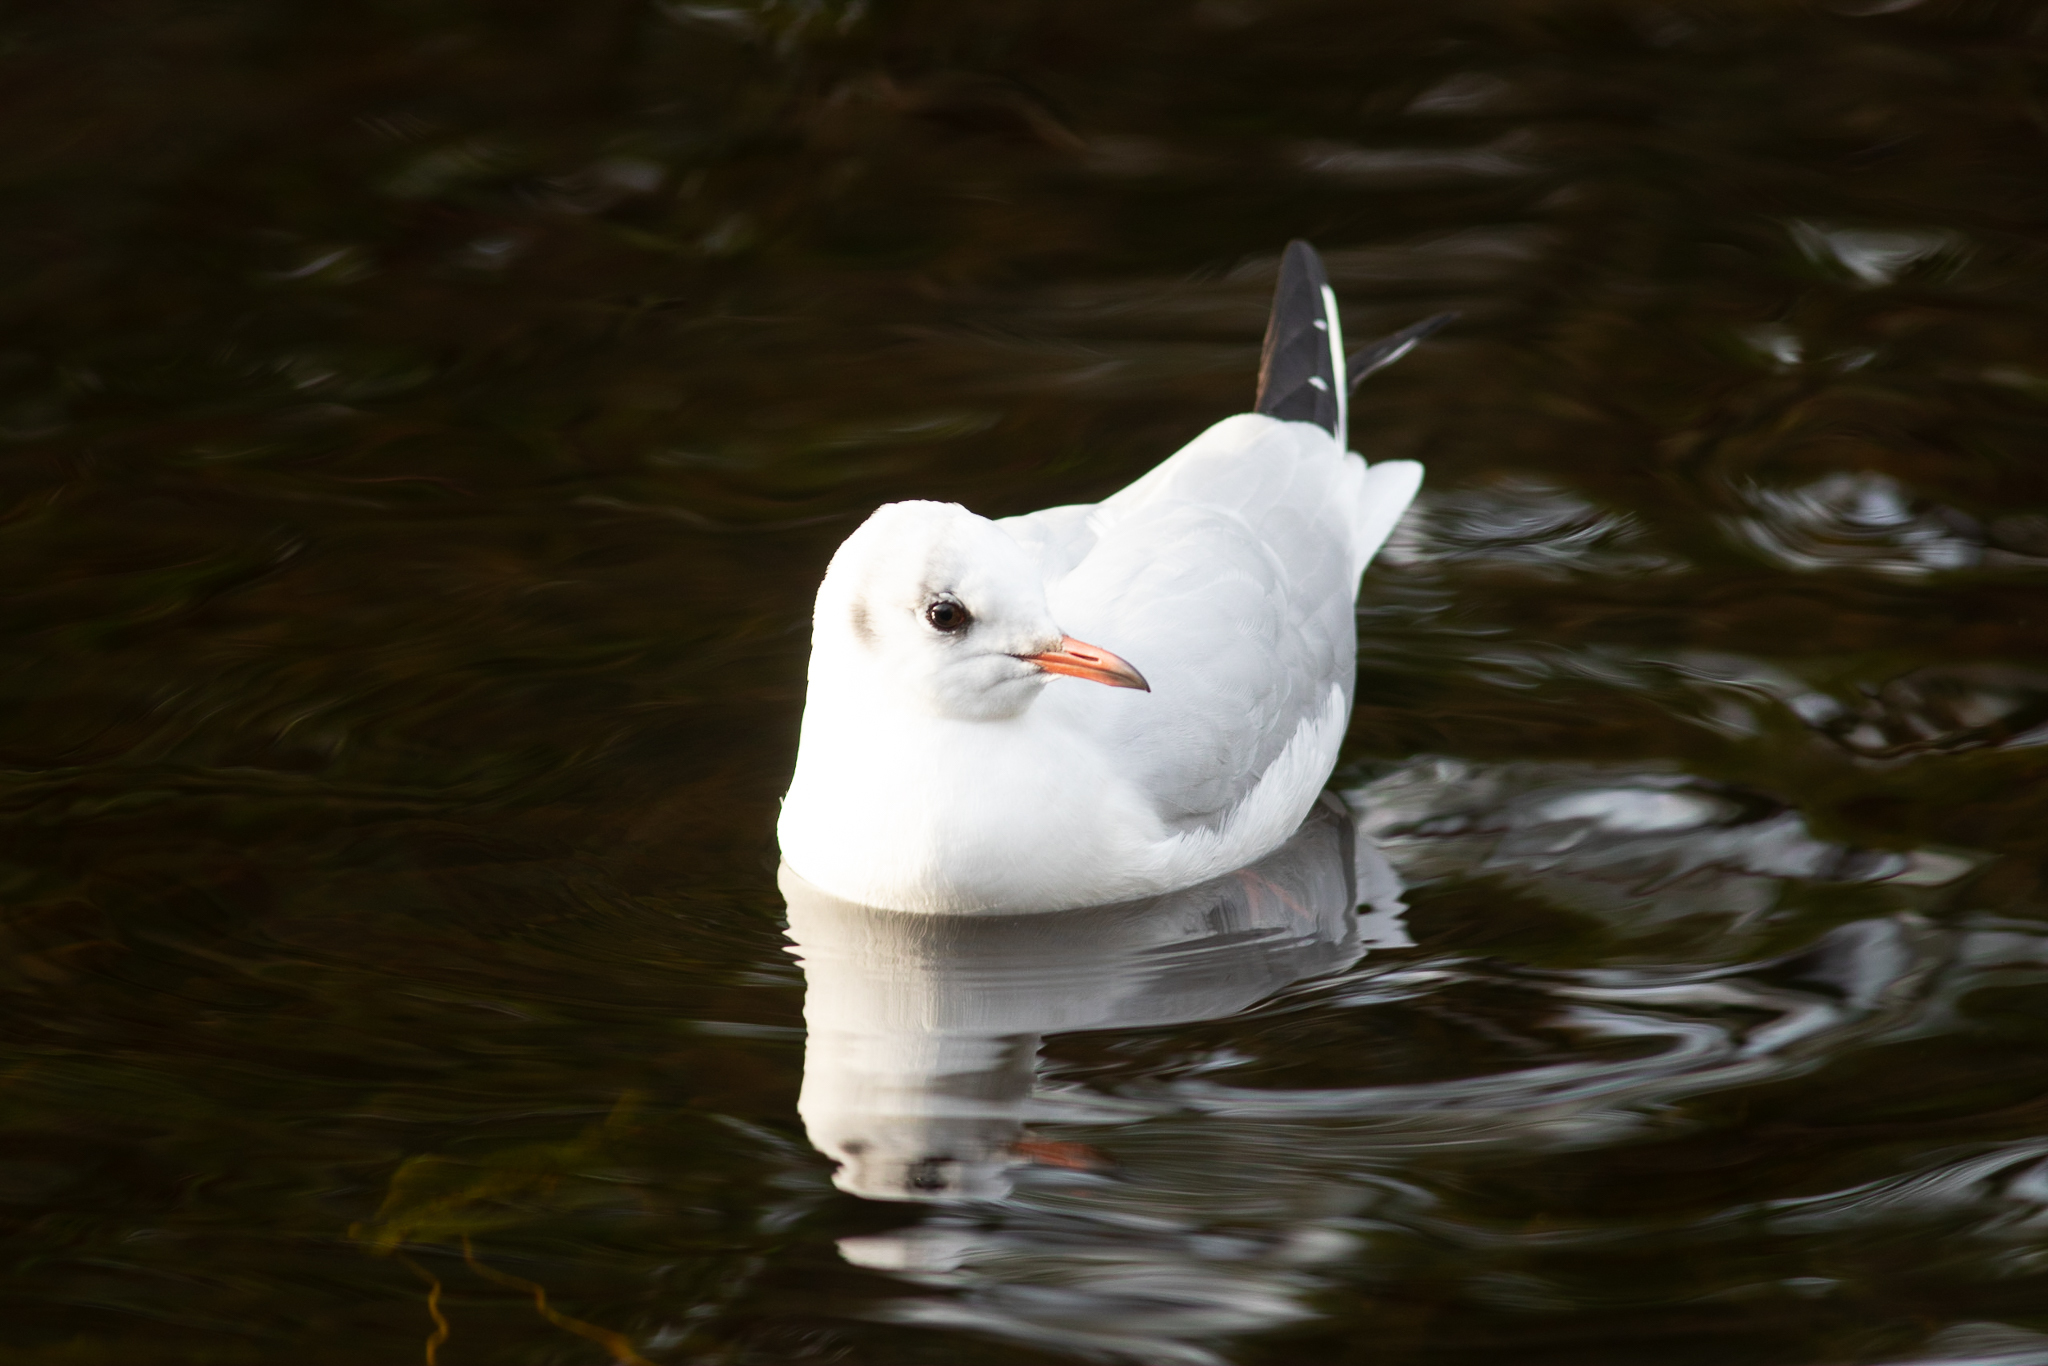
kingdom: Animalia
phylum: Chordata
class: Aves
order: Charadriiformes
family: Laridae
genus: Chroicocephalus
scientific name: Chroicocephalus ridibundus
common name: Black-headed gull
